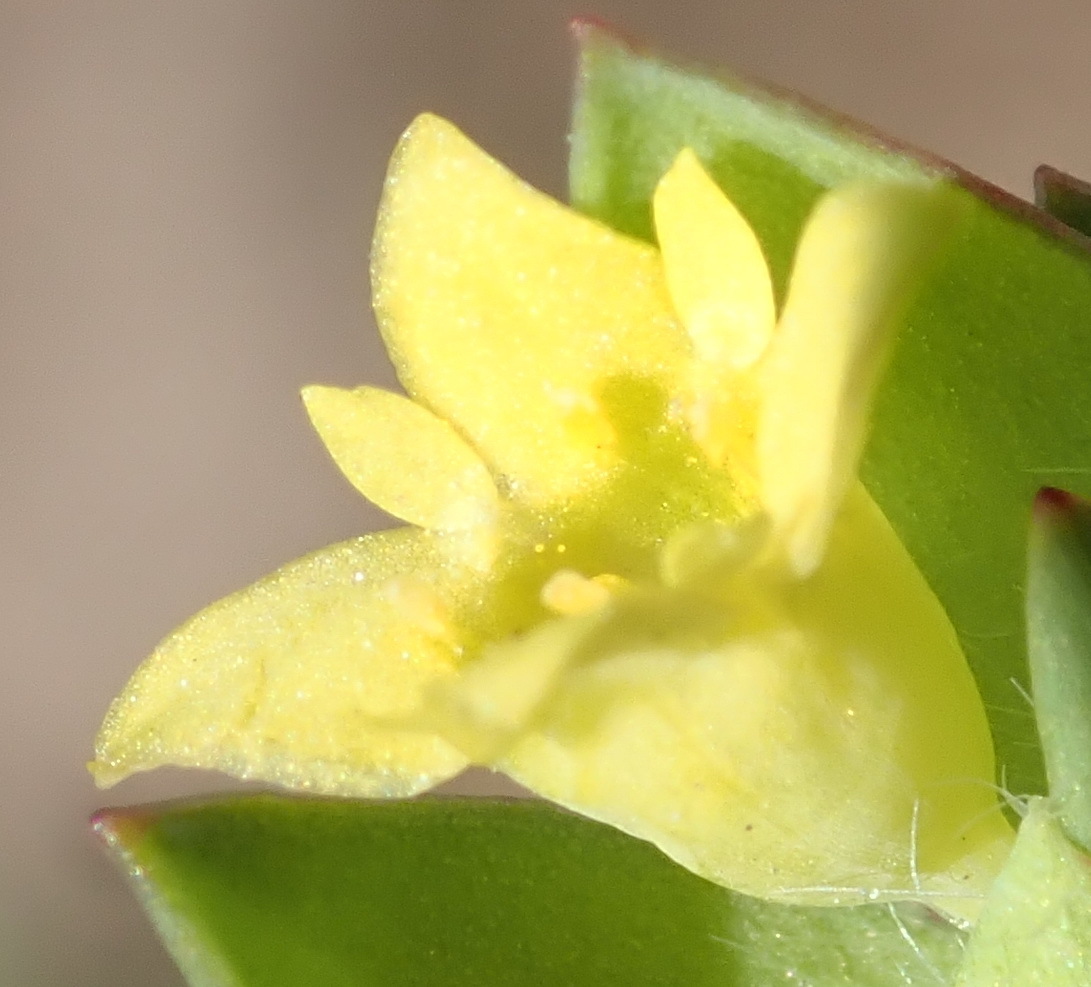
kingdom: Plantae
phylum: Tracheophyta
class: Magnoliopsida
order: Malvales
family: Thymelaeaceae
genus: Gnidia
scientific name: Gnidia juniperifolia
